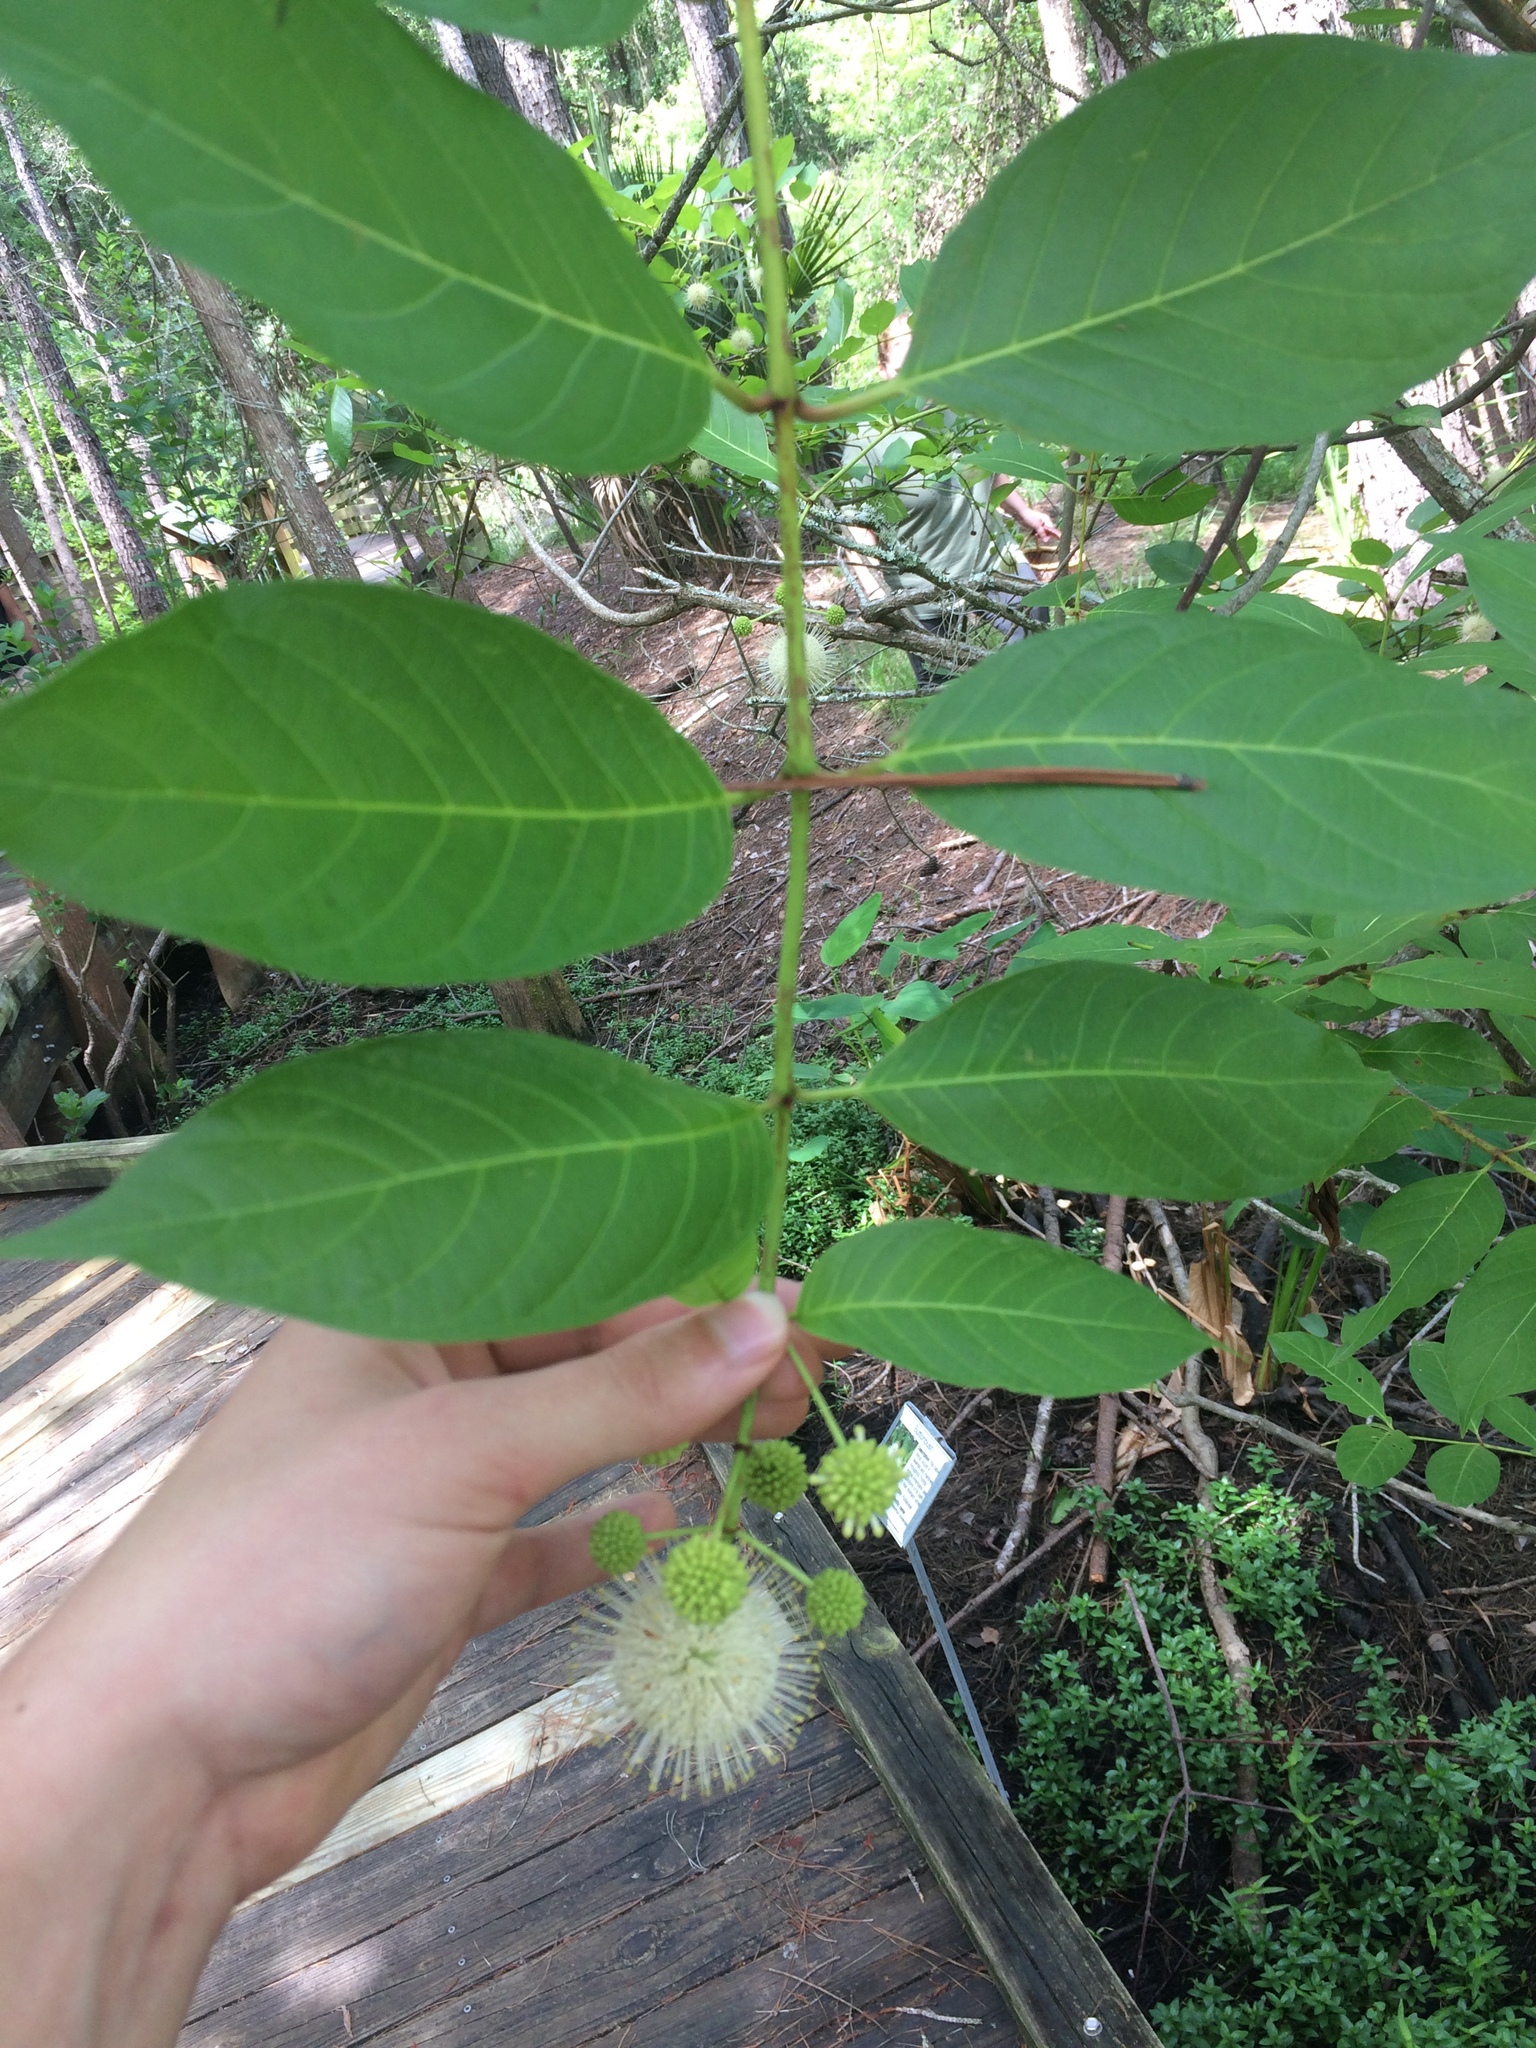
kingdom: Plantae
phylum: Tracheophyta
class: Magnoliopsida
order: Gentianales
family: Rubiaceae
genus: Cephalanthus
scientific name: Cephalanthus occidentalis
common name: Button-willow
